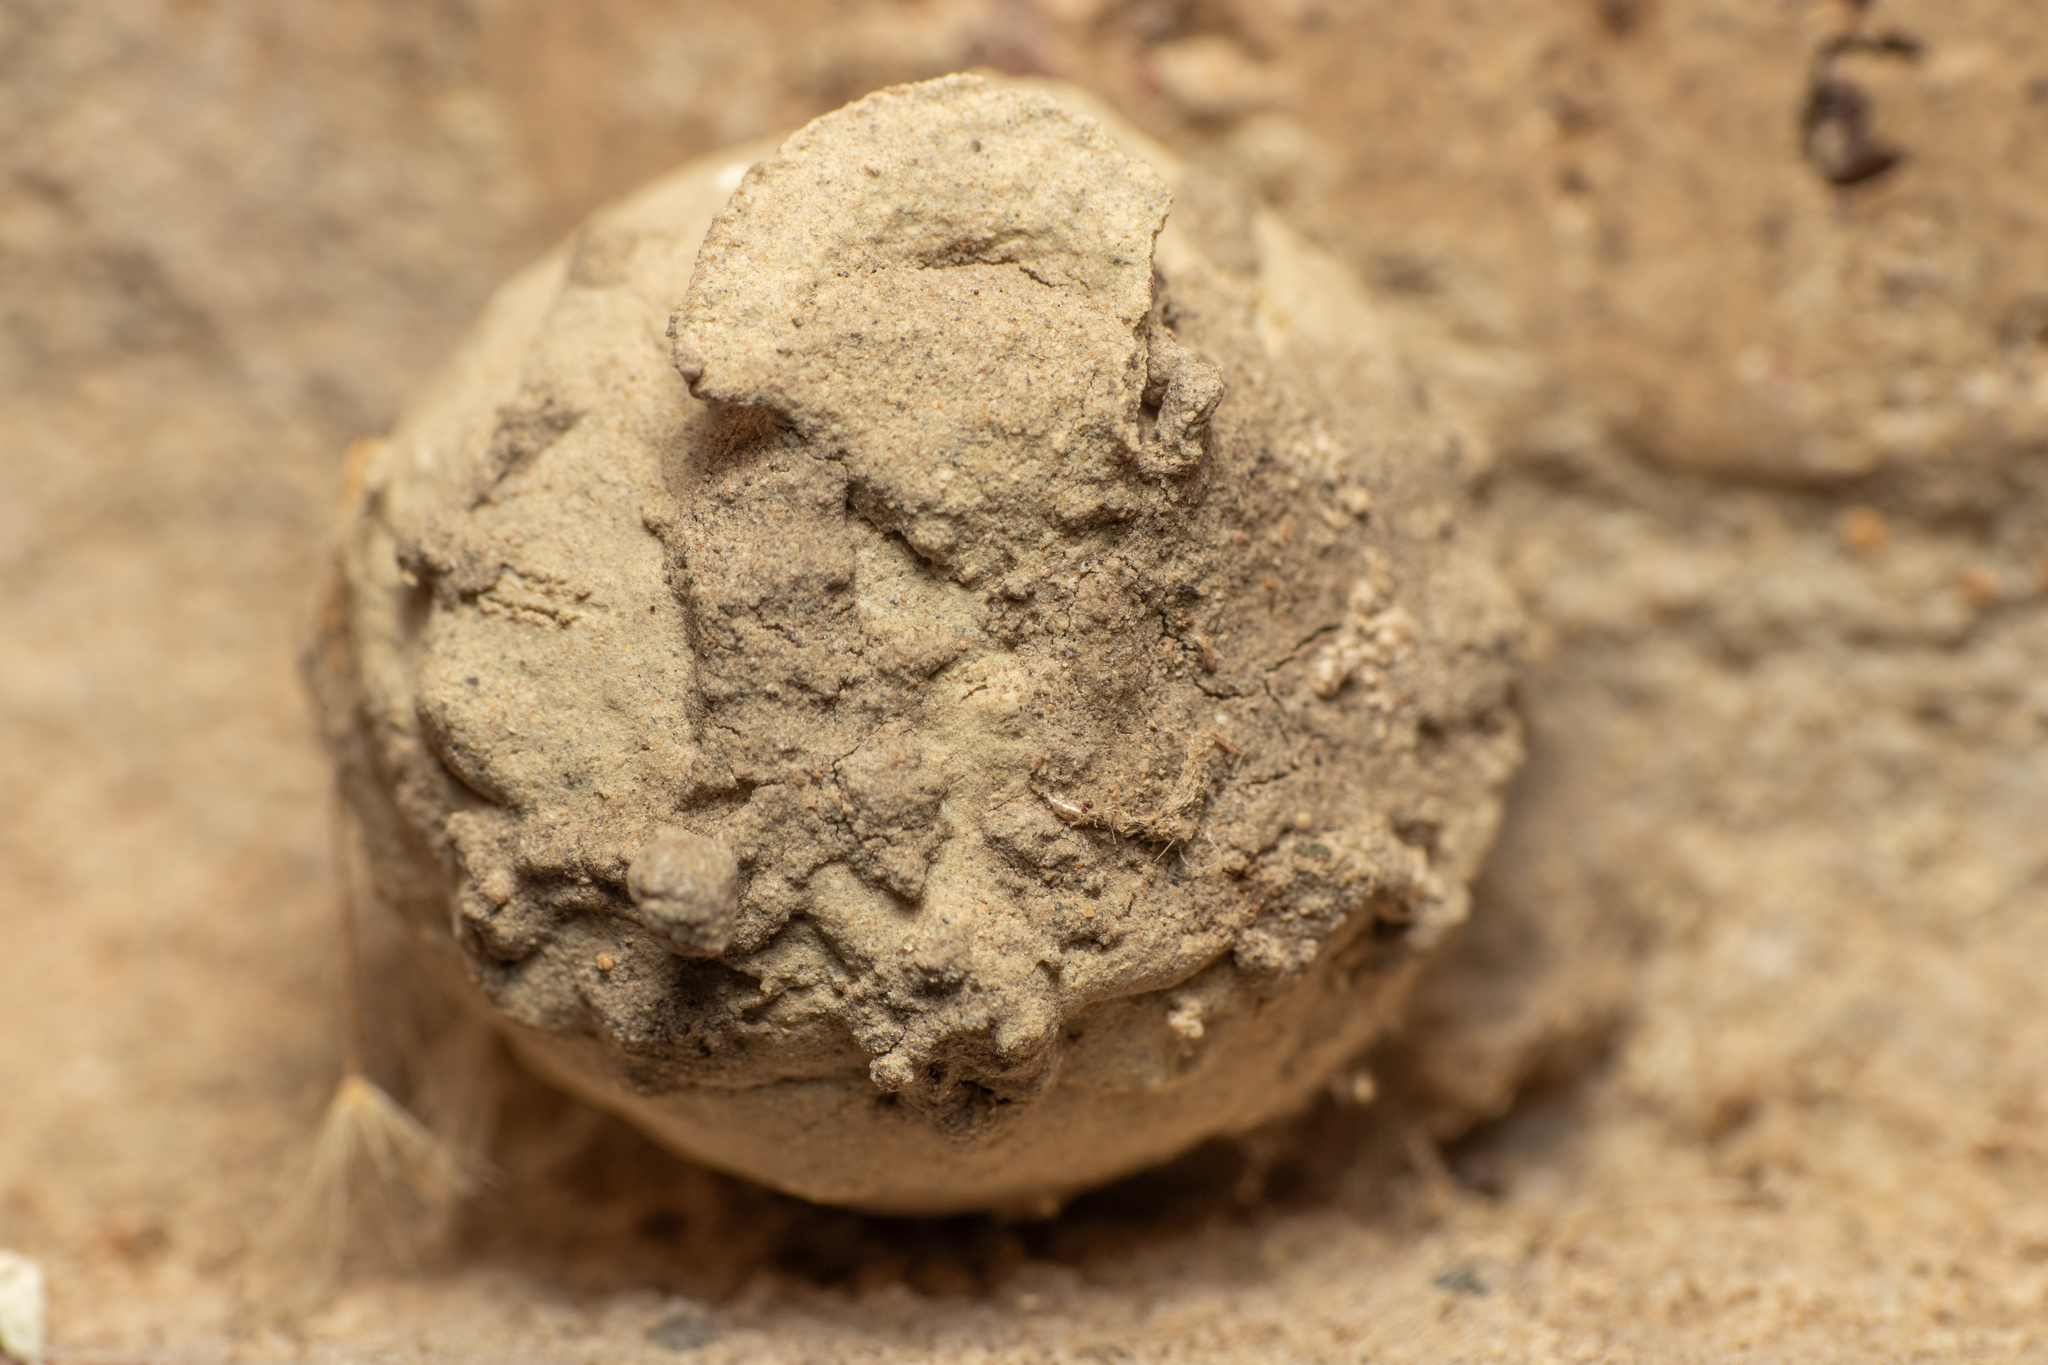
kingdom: Animalia
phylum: Arthropoda
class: Insecta
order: Hymenoptera
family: Vespidae
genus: Eumenes
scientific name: Eumenes
